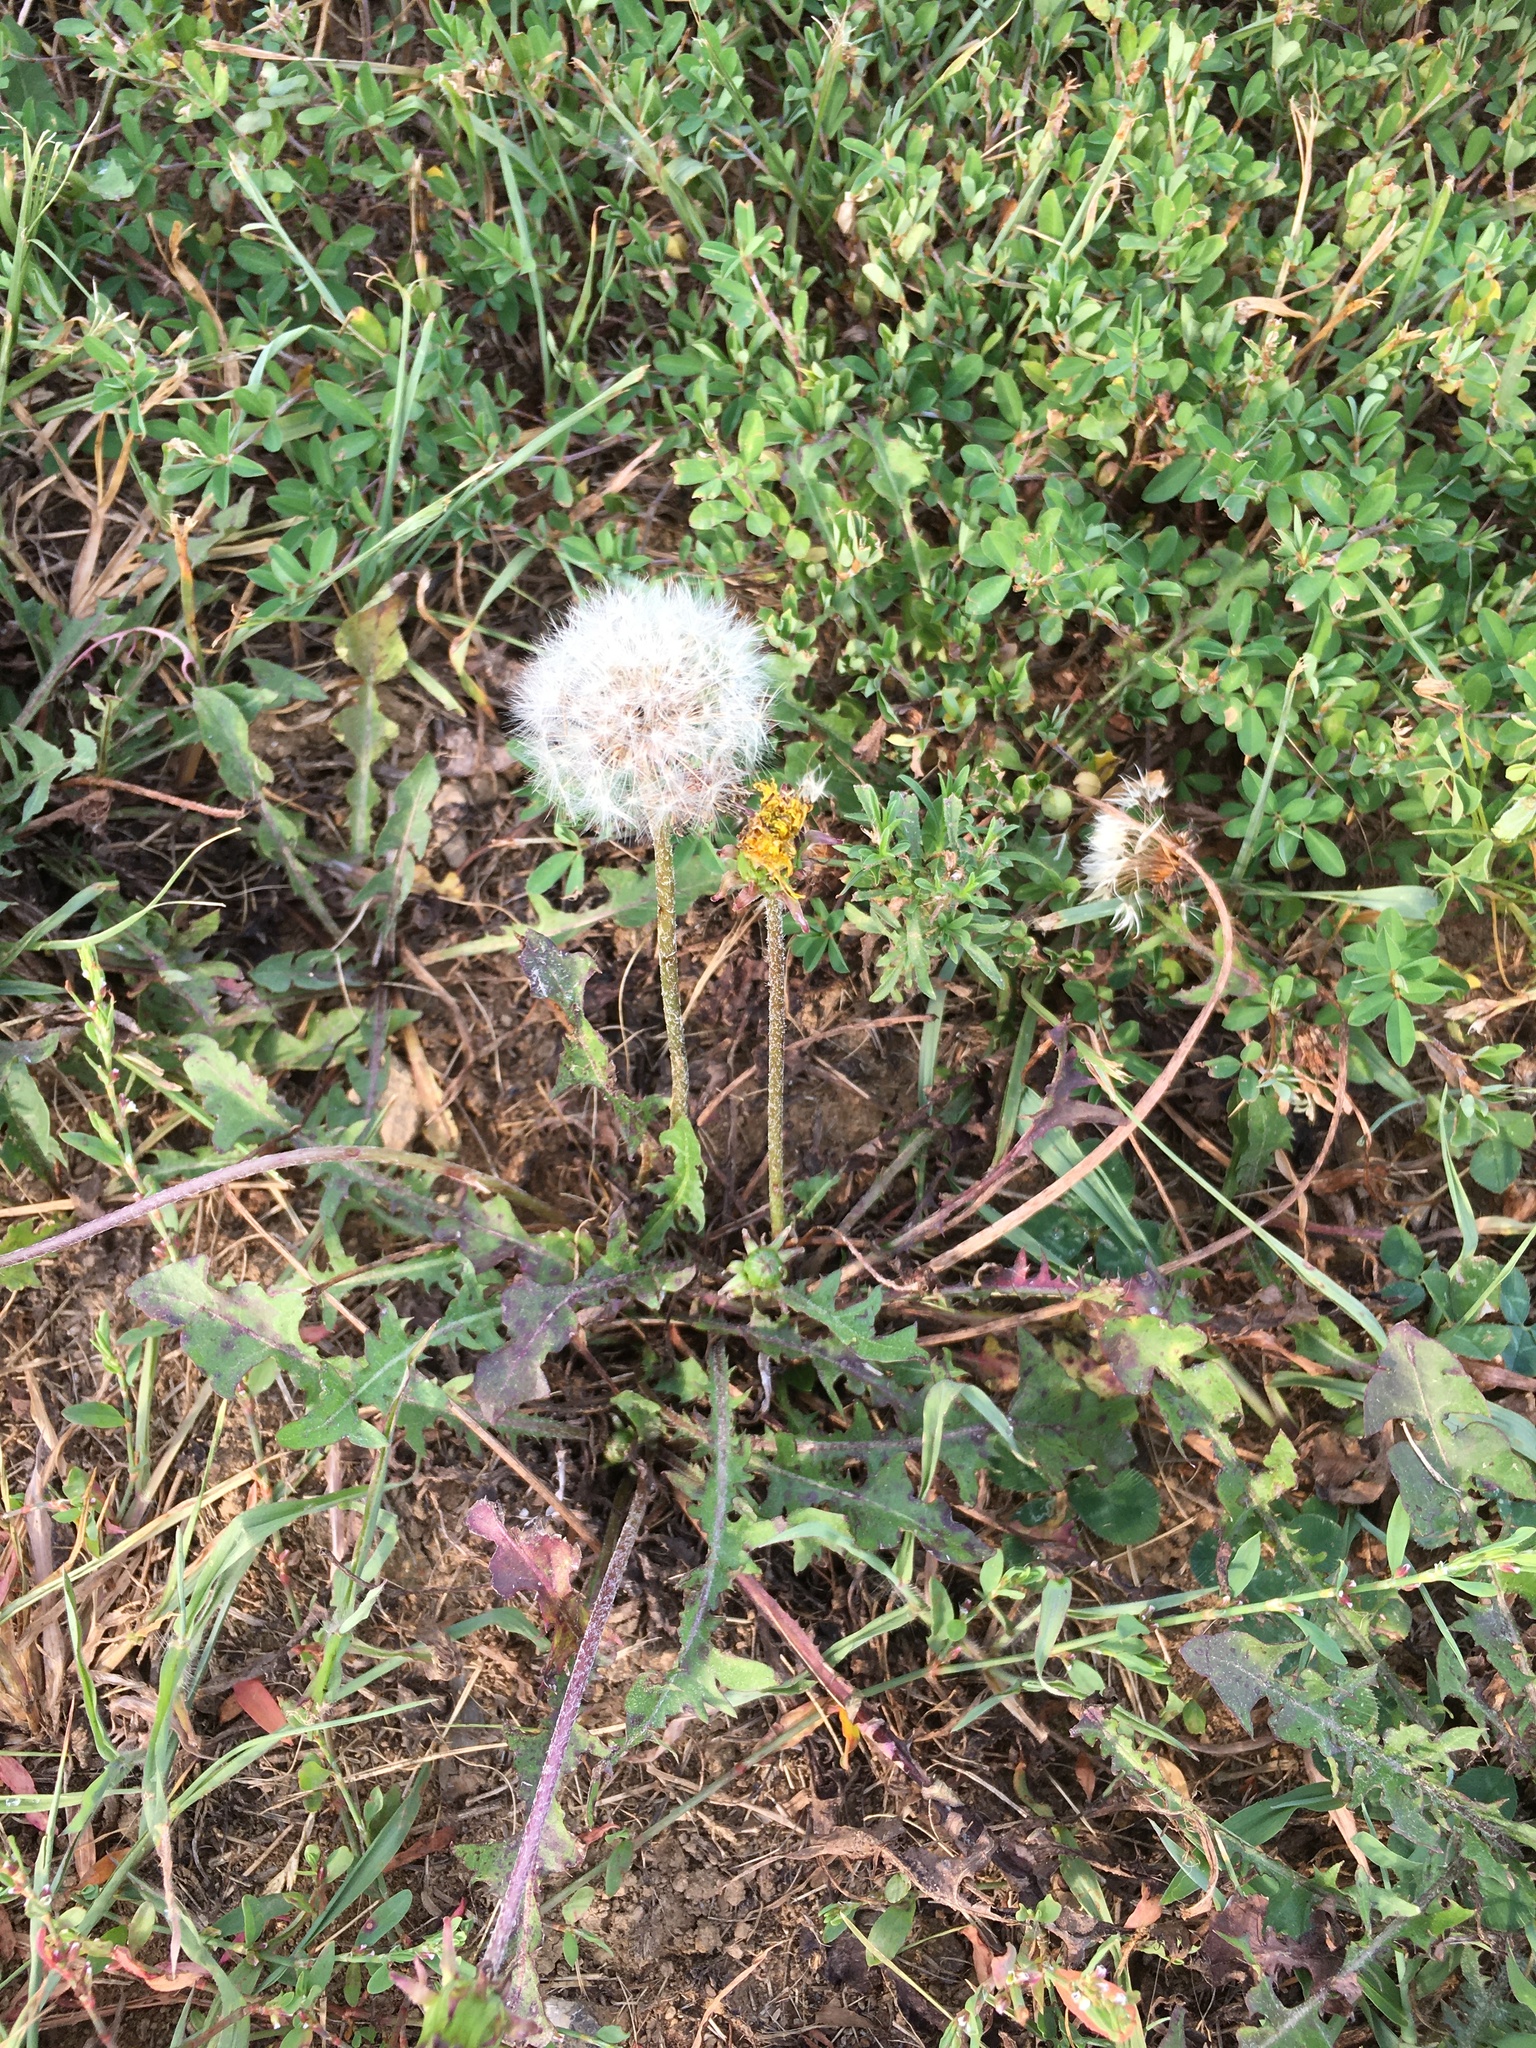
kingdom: Plantae
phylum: Tracheophyta
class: Magnoliopsida
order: Asterales
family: Asteraceae
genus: Taraxacum
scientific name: Taraxacum officinale
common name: Common dandelion
